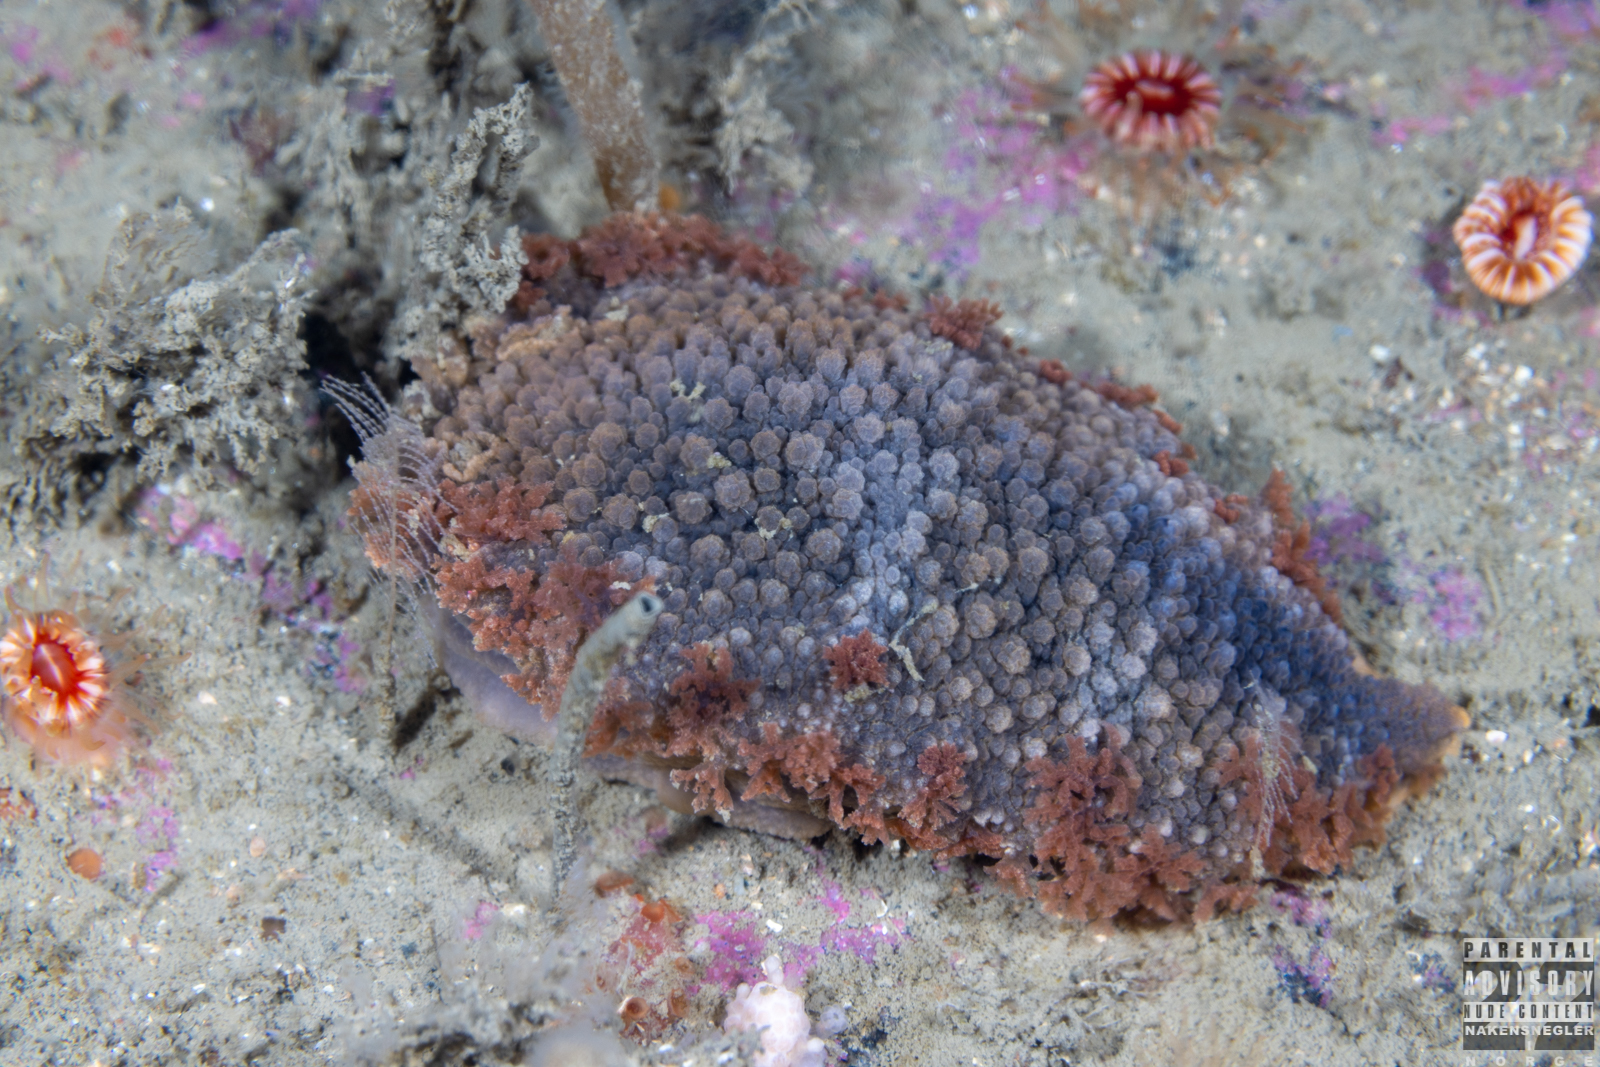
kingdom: Animalia
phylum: Mollusca
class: Gastropoda
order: Nudibranchia
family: Tritoniidae
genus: Tritonia
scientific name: Tritonia hombergii
